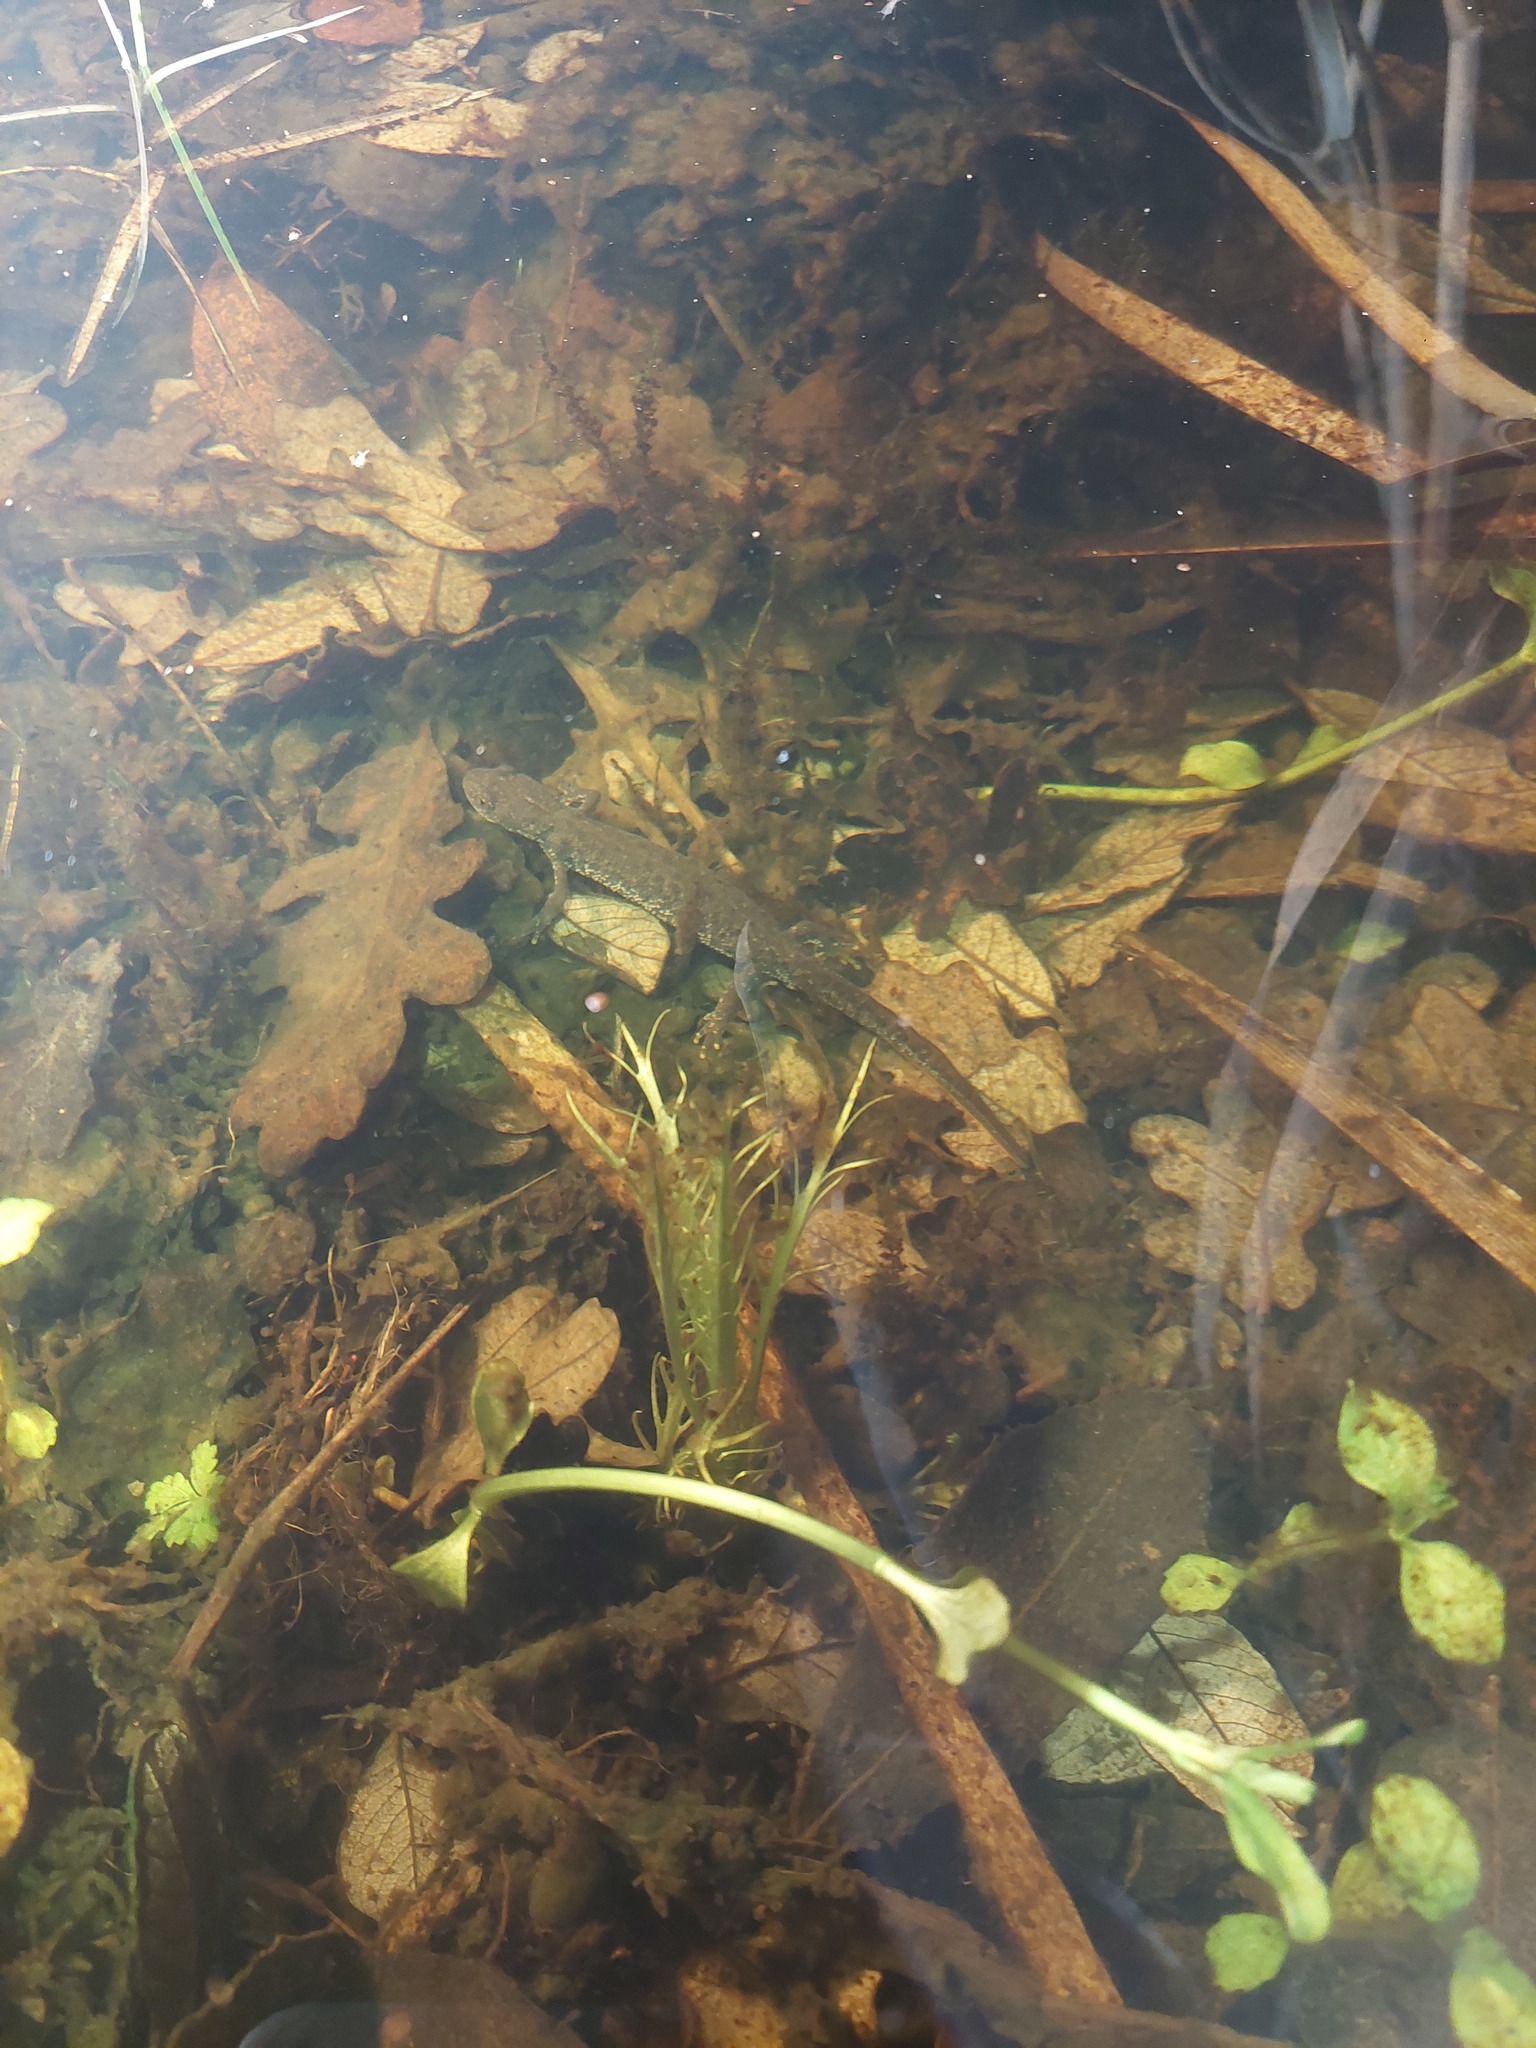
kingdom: Animalia
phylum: Chordata
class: Amphibia
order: Caudata
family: Salamandridae
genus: Triturus
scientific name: Triturus cristatus
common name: Crested newt
